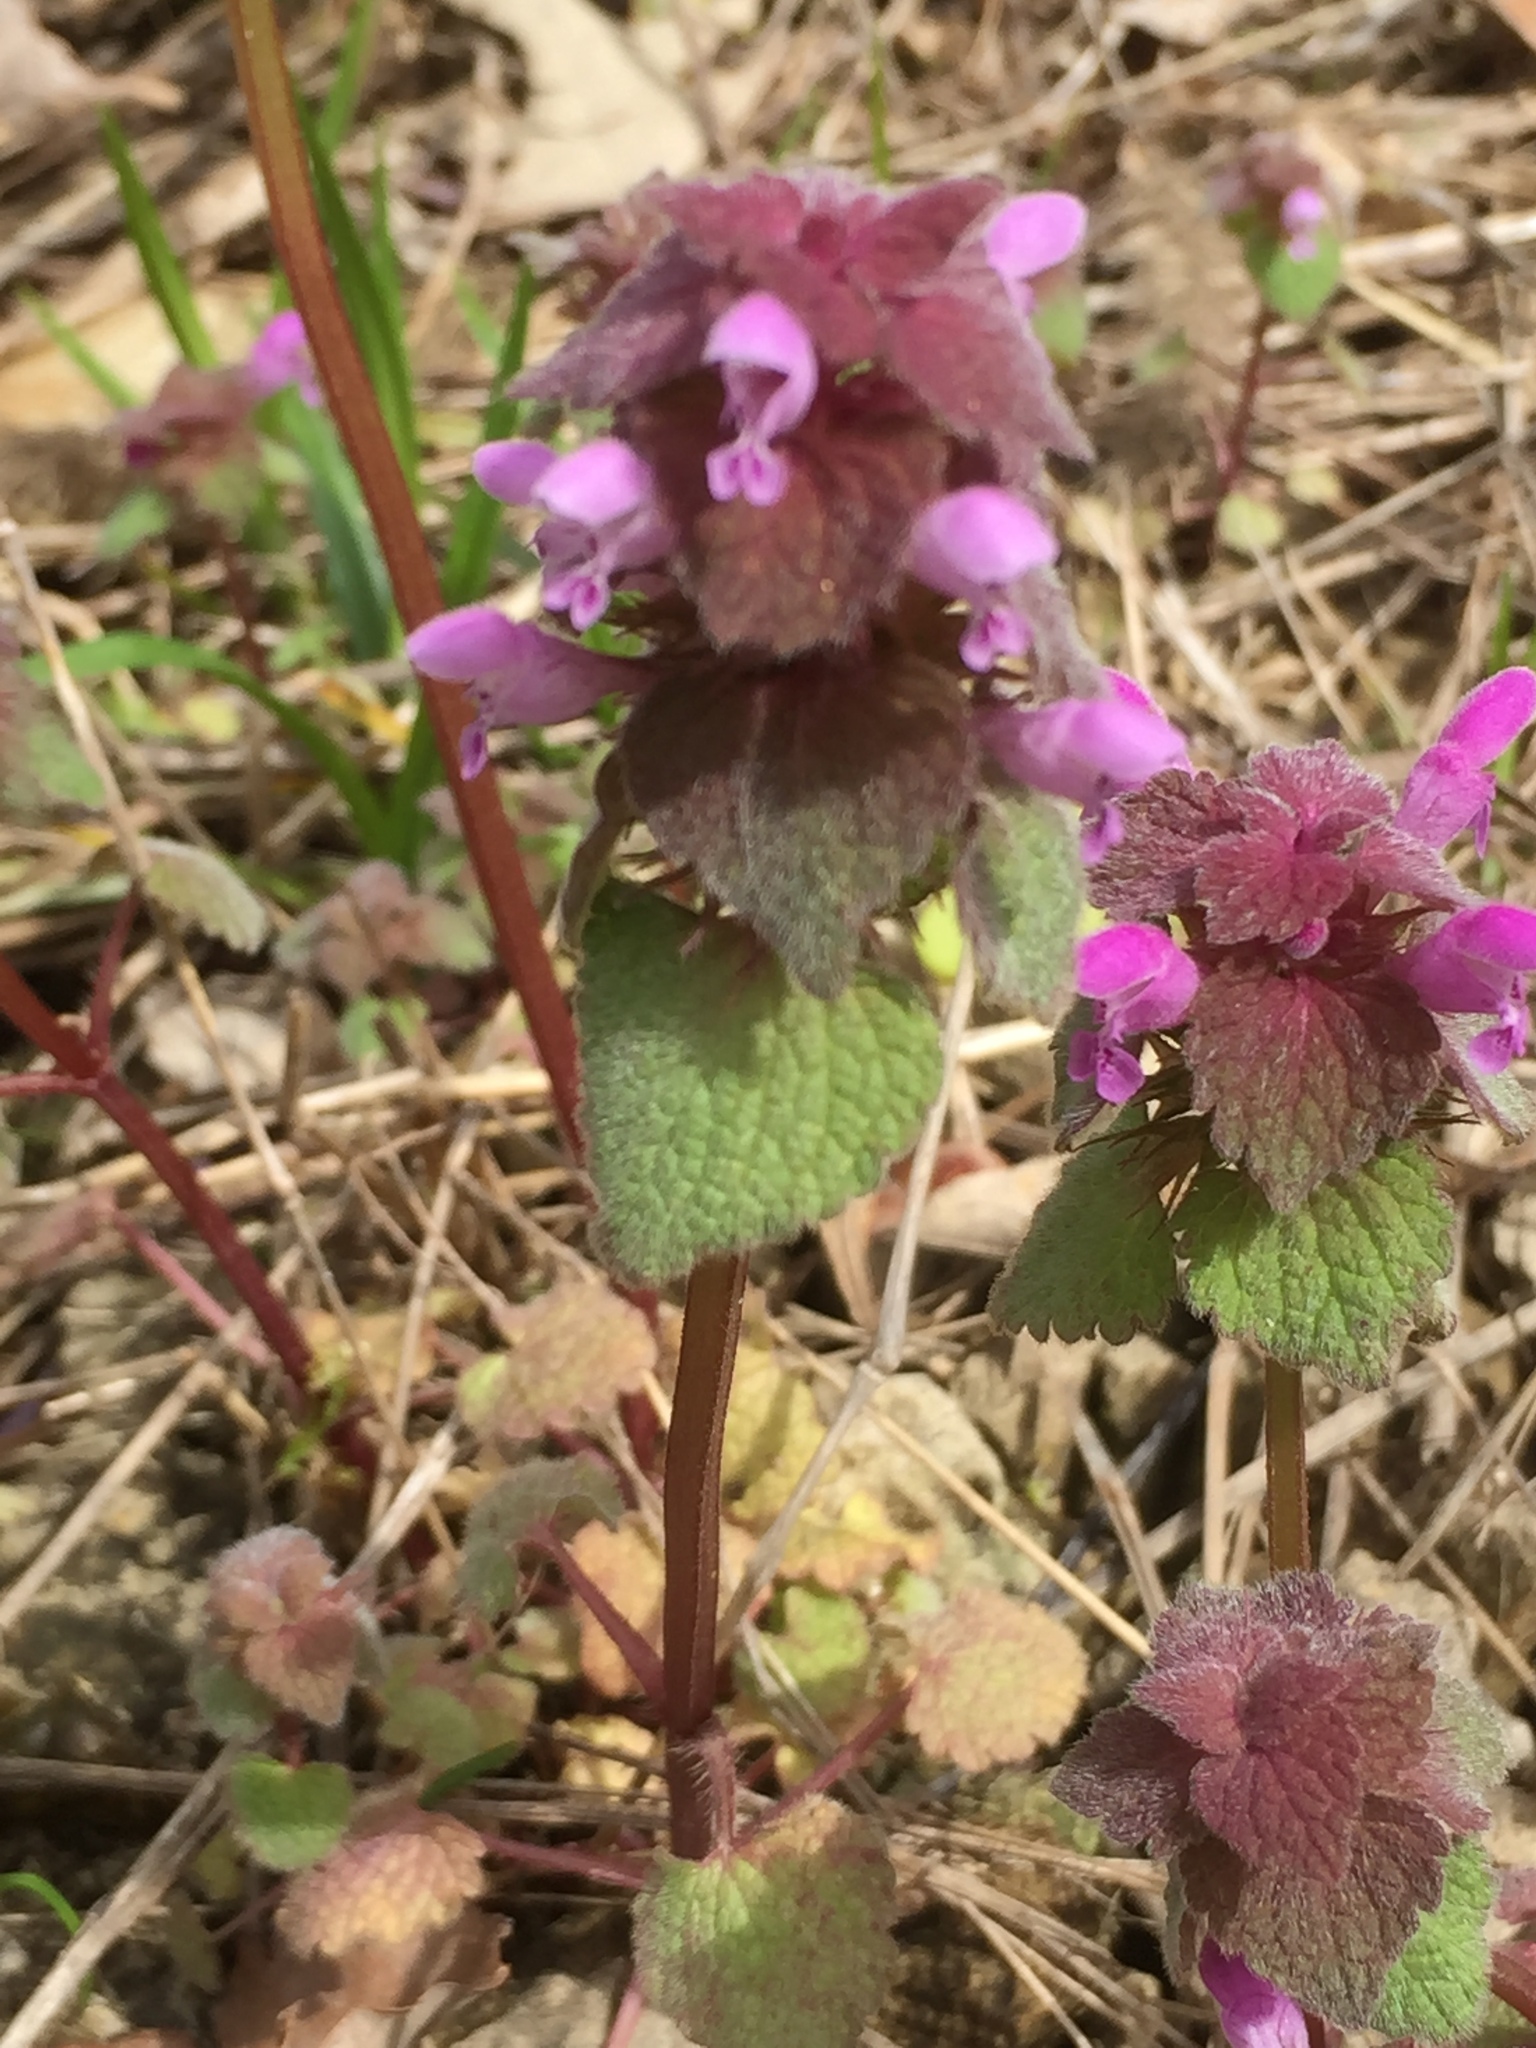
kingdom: Plantae
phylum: Tracheophyta
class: Magnoliopsida
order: Lamiales
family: Lamiaceae
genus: Lamium
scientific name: Lamium purpureum
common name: Red dead-nettle
